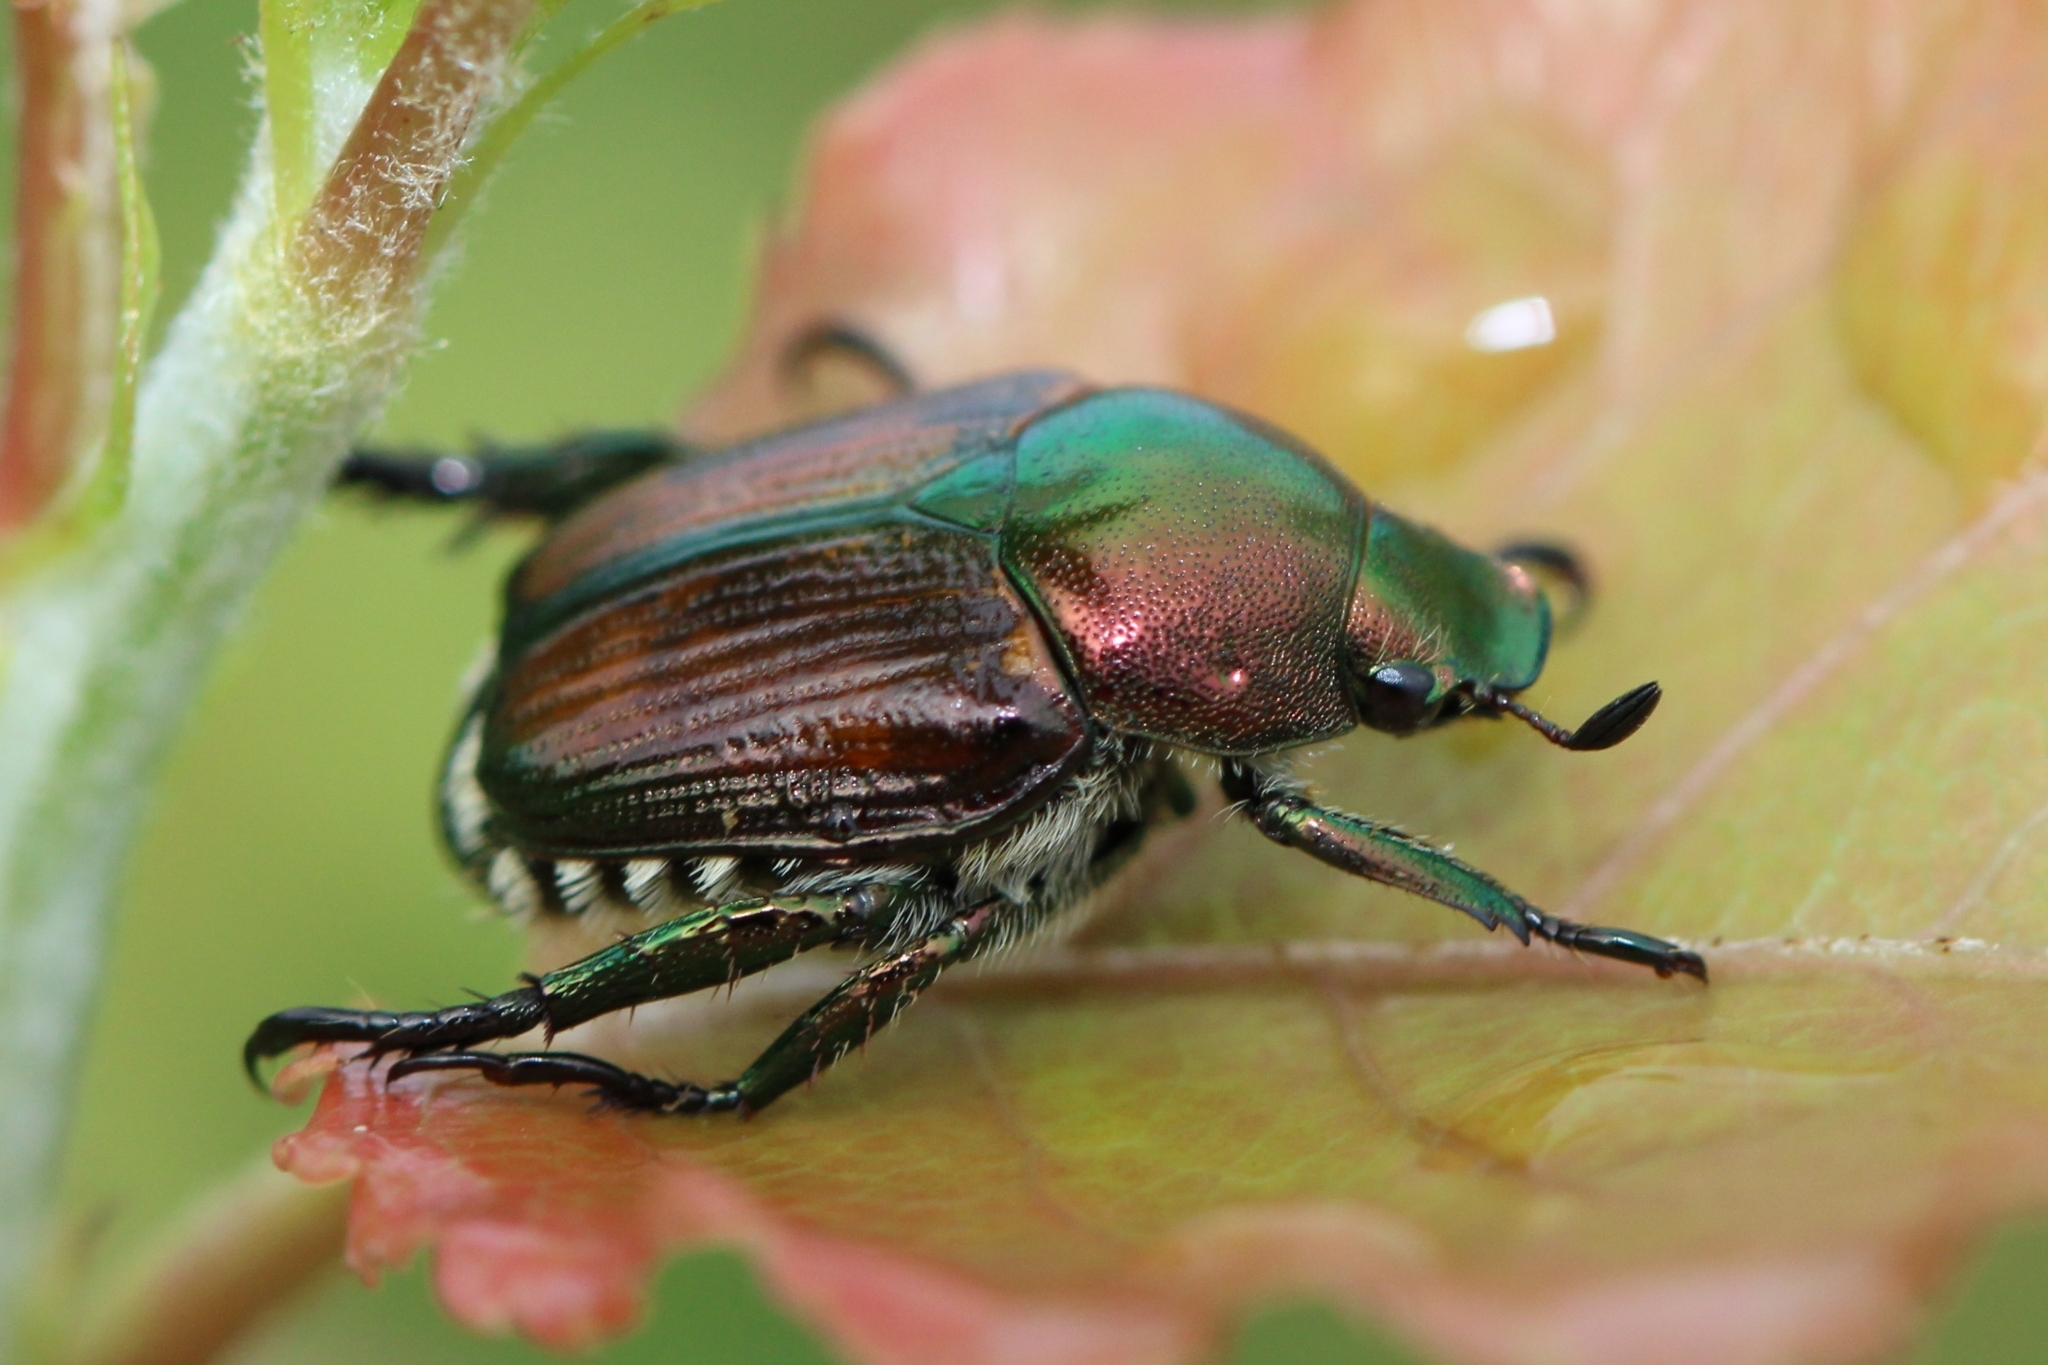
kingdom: Animalia
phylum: Arthropoda
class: Insecta
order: Coleoptera
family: Scarabaeidae
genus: Popillia
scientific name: Popillia japonica
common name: Japanese beetle
